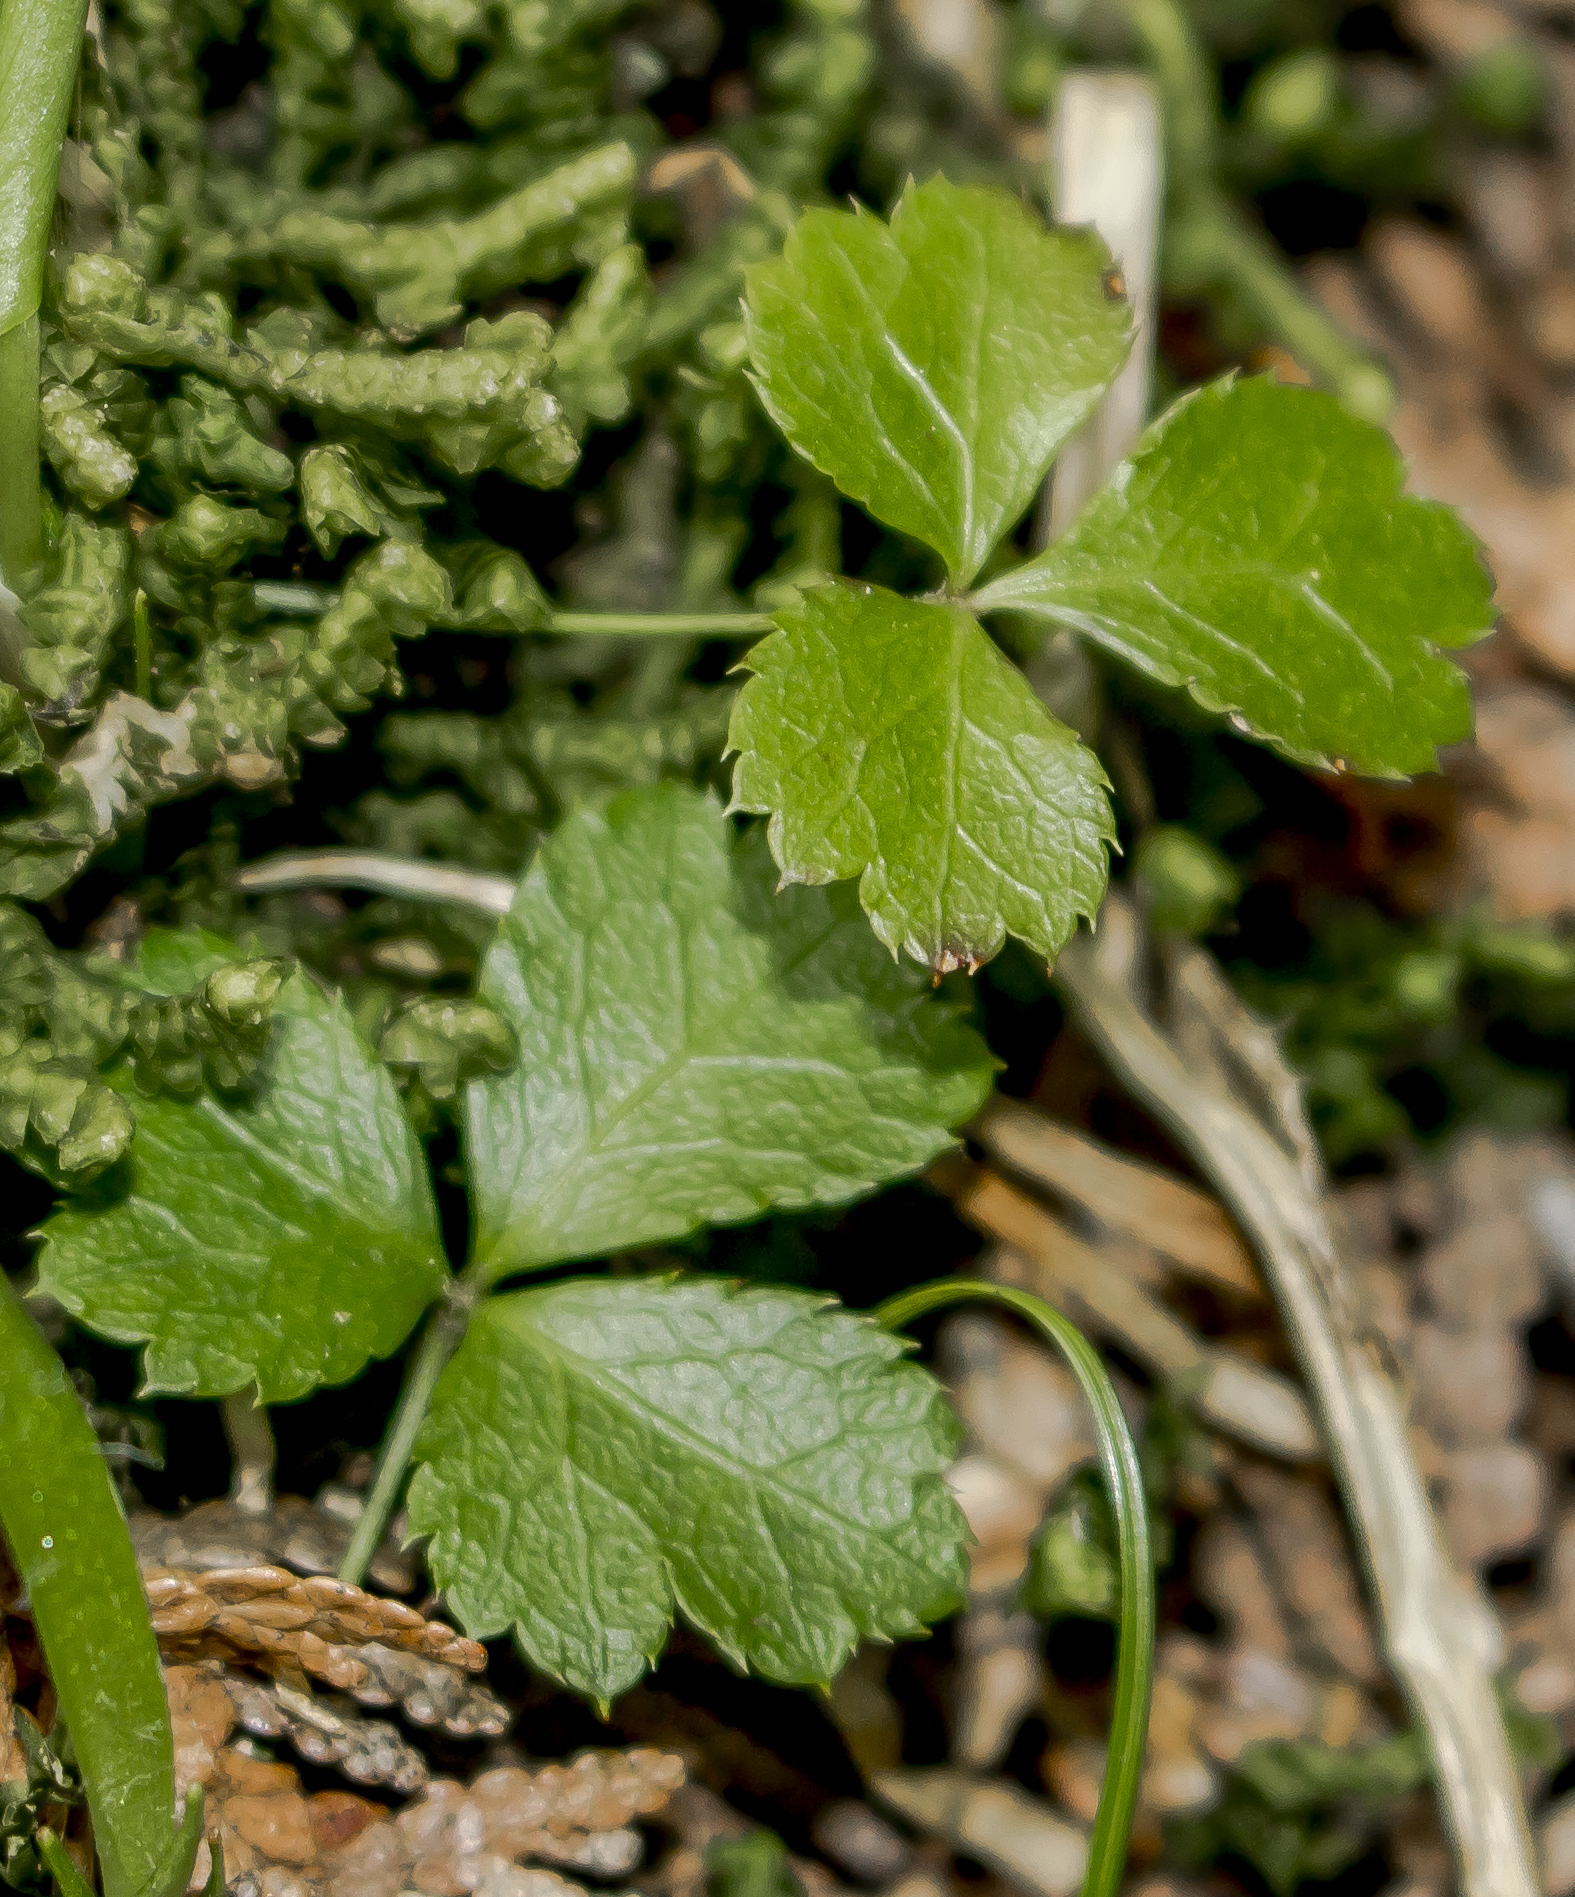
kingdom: Plantae
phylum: Tracheophyta
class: Magnoliopsida
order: Ranunculales
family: Ranunculaceae
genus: Coptis
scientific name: Coptis trifolia
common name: Canker-root
